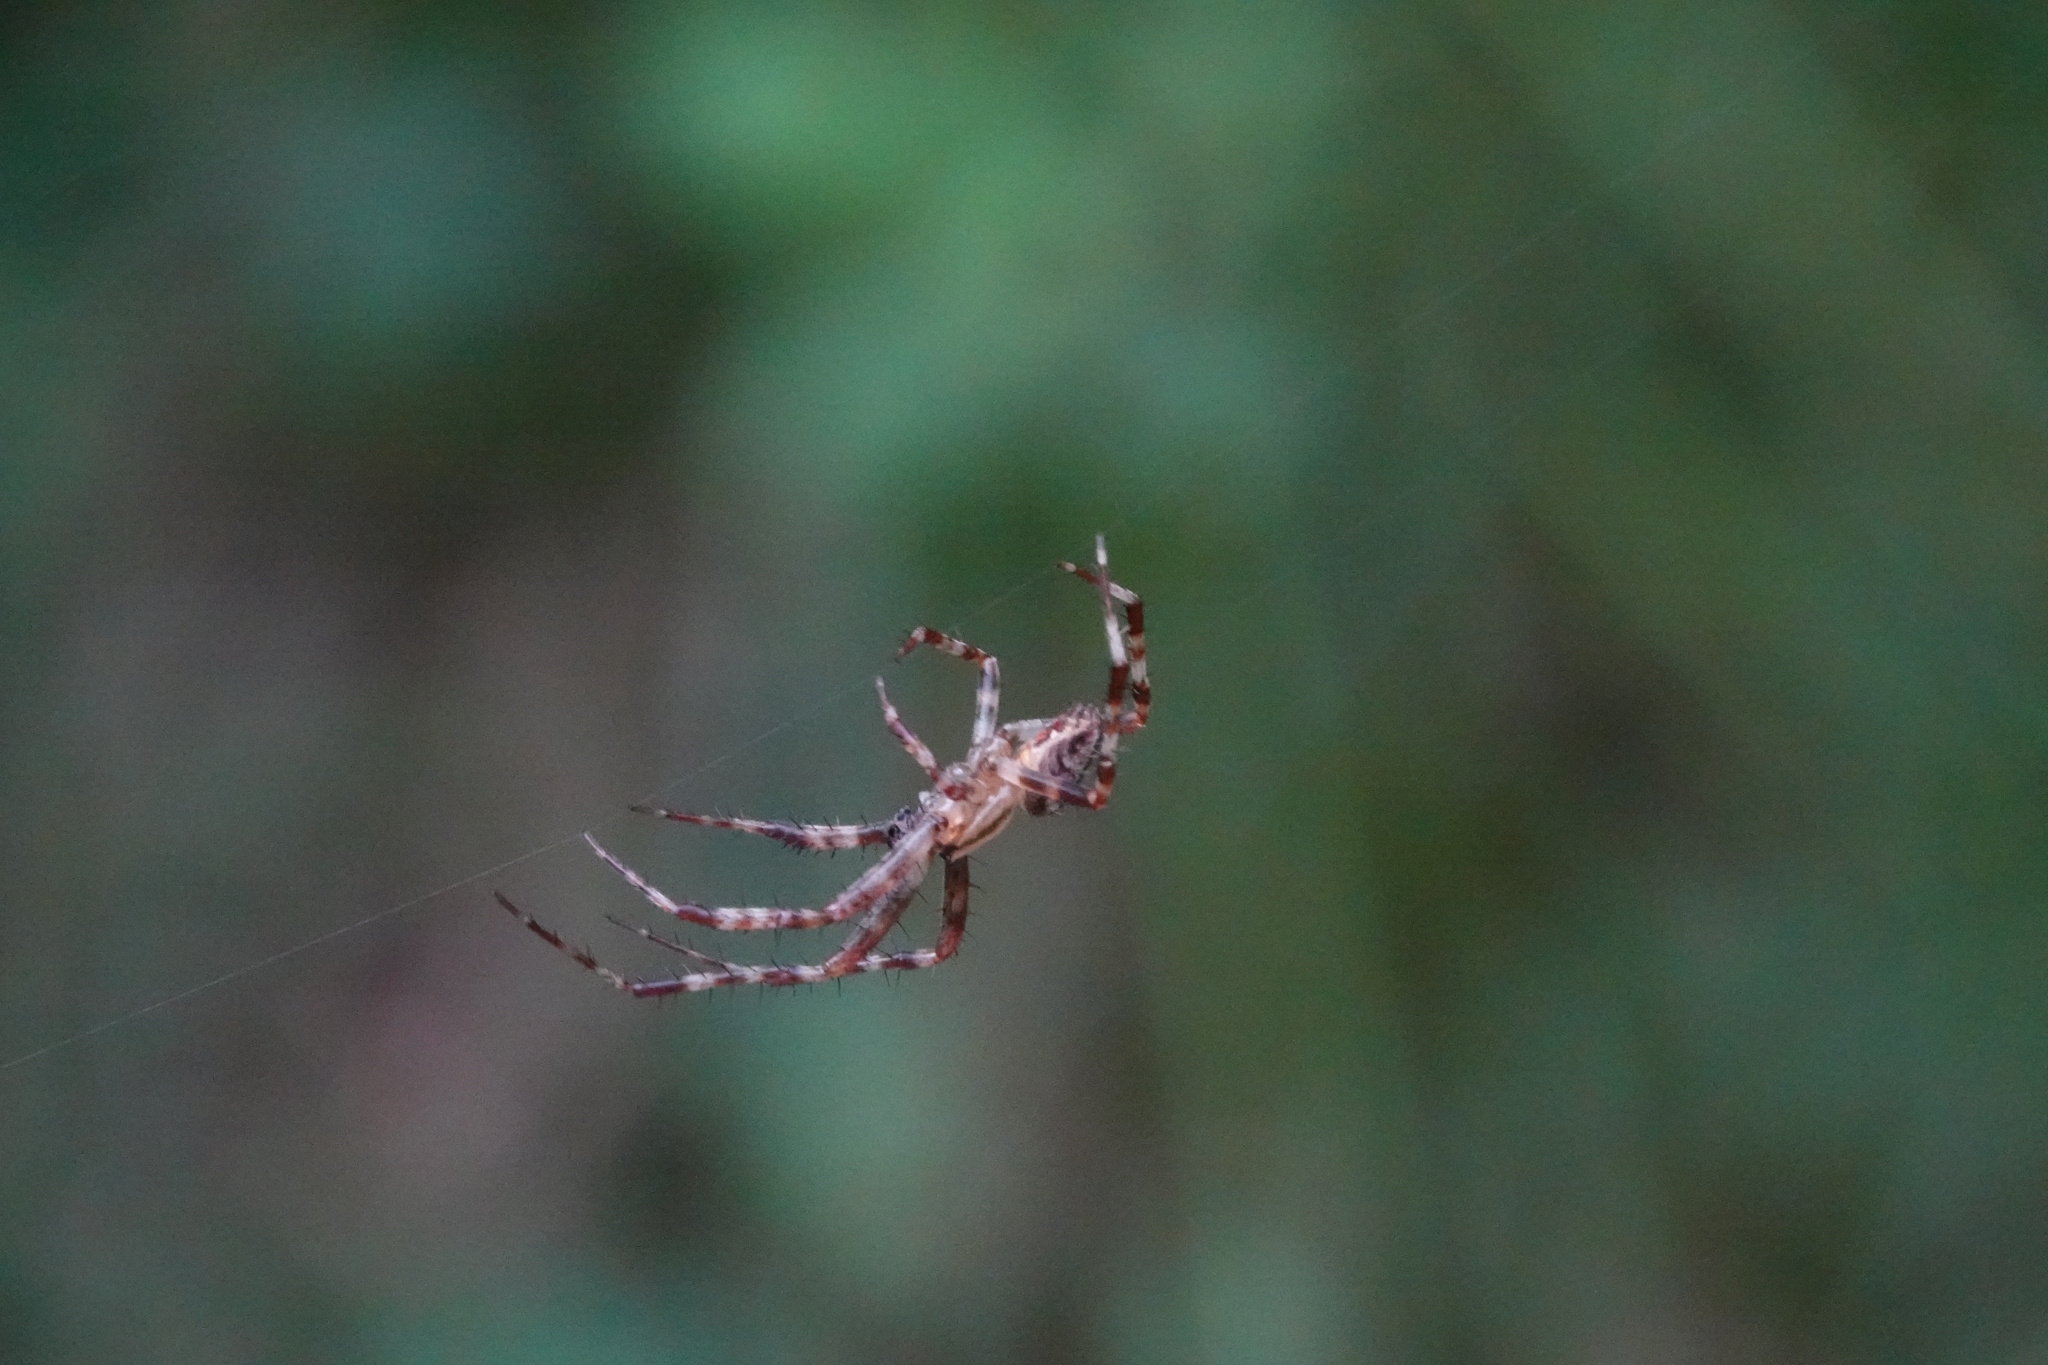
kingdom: Animalia
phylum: Arthropoda
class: Arachnida
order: Araneae
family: Araneidae
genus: Araneus
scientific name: Araneus diadematus
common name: Cross orbweaver
